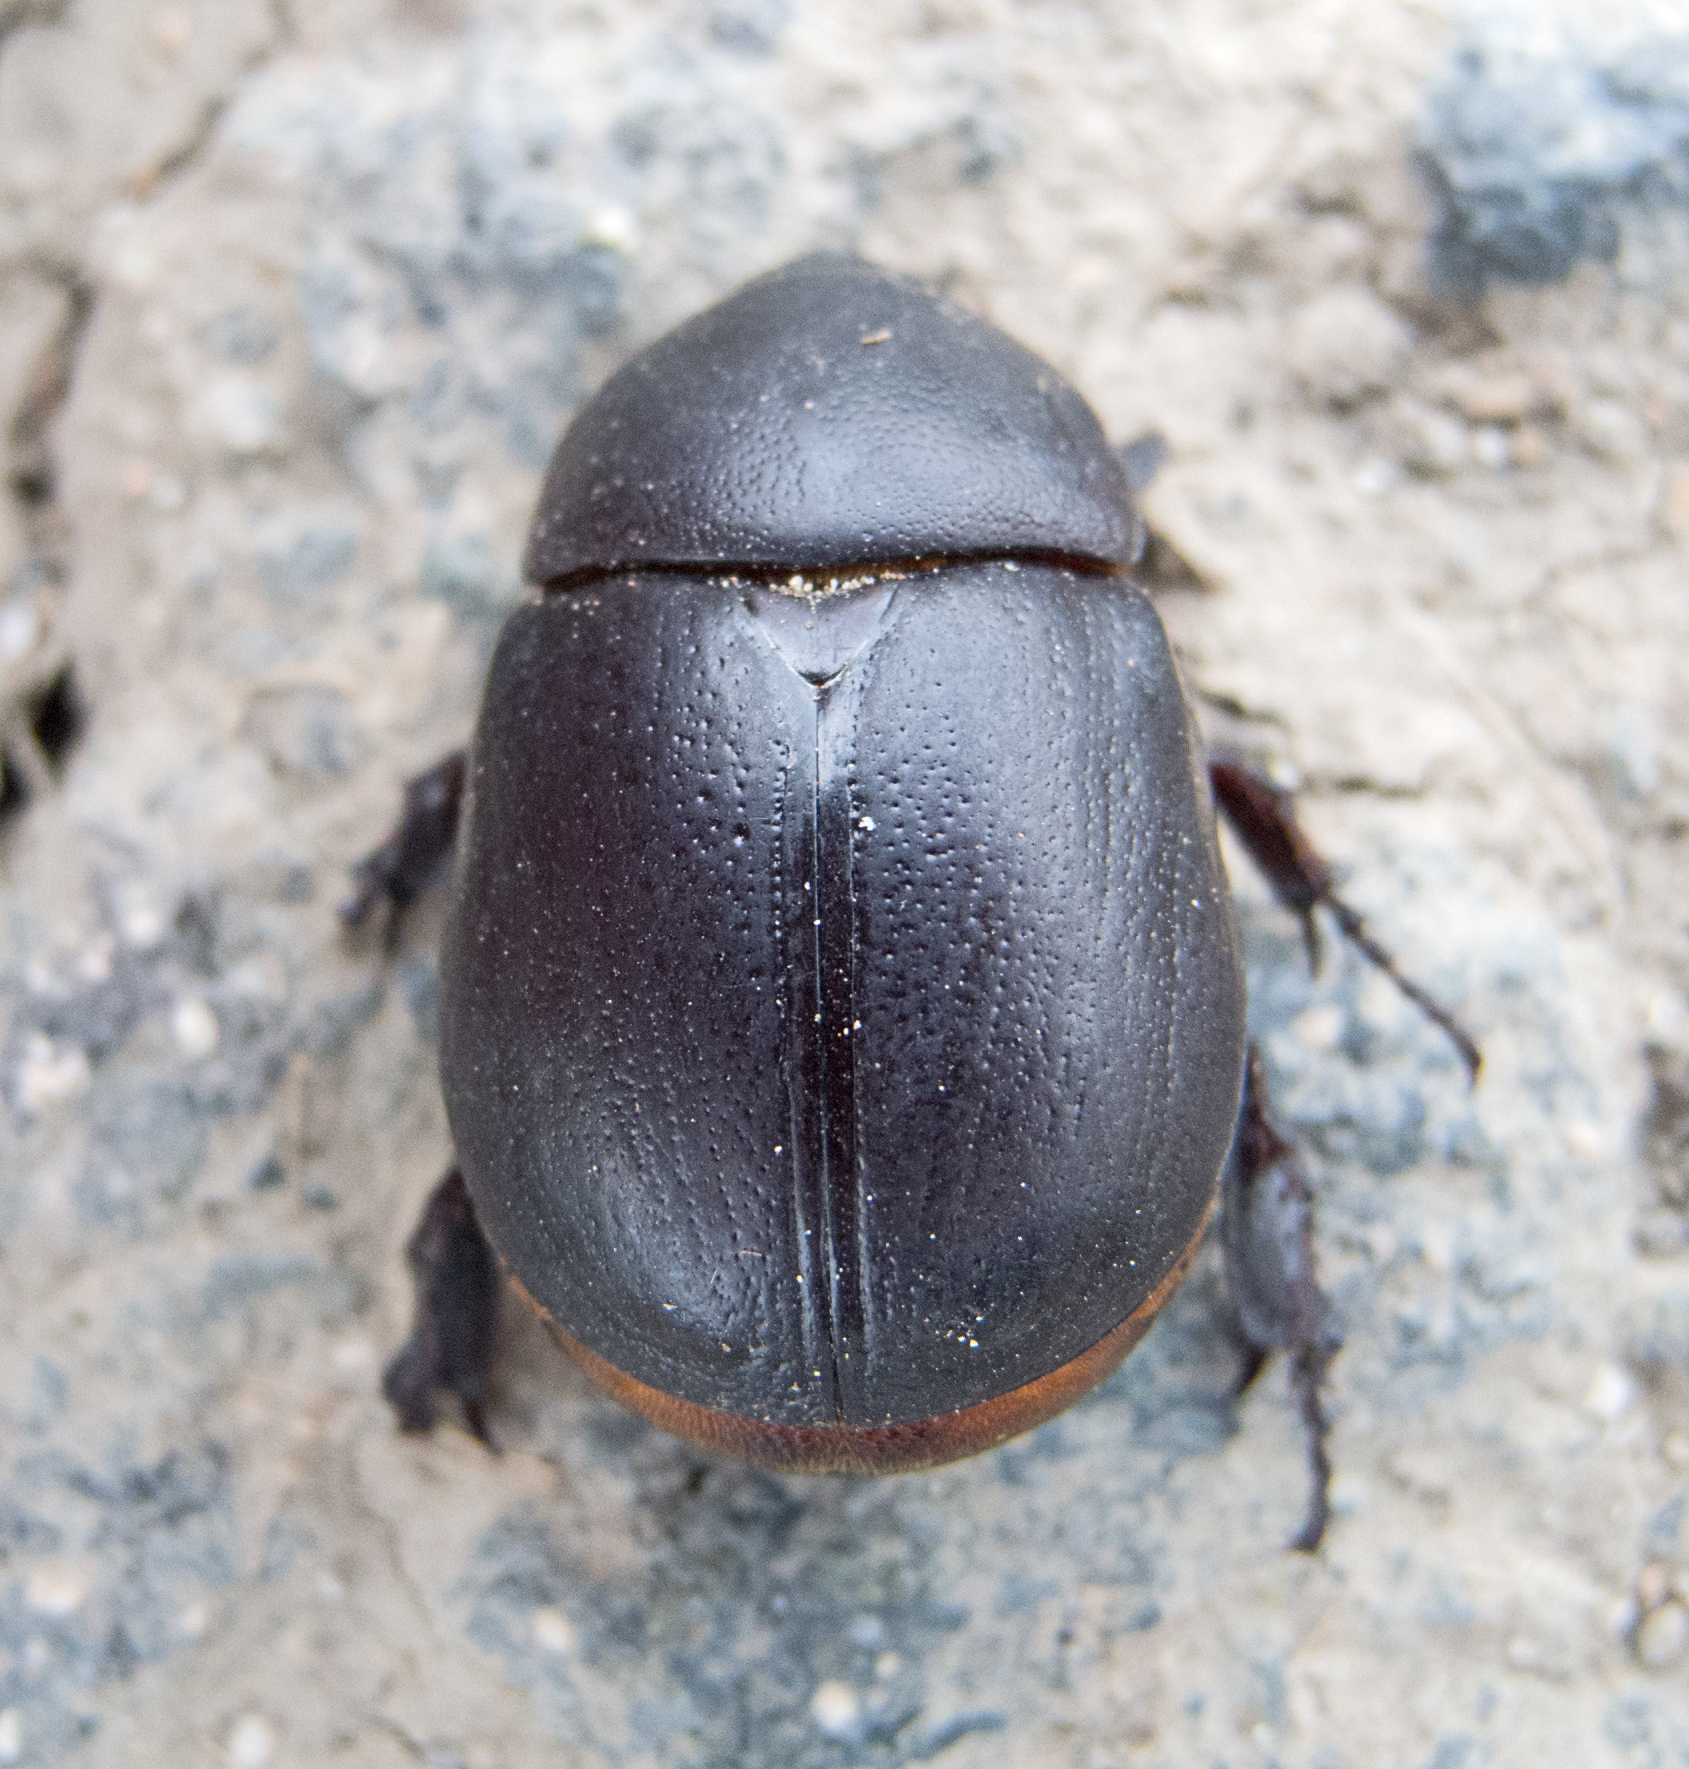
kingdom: Animalia
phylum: Arthropoda
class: Insecta
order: Coleoptera
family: Scarabaeidae
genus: Pentodon
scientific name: Pentodon idiota
